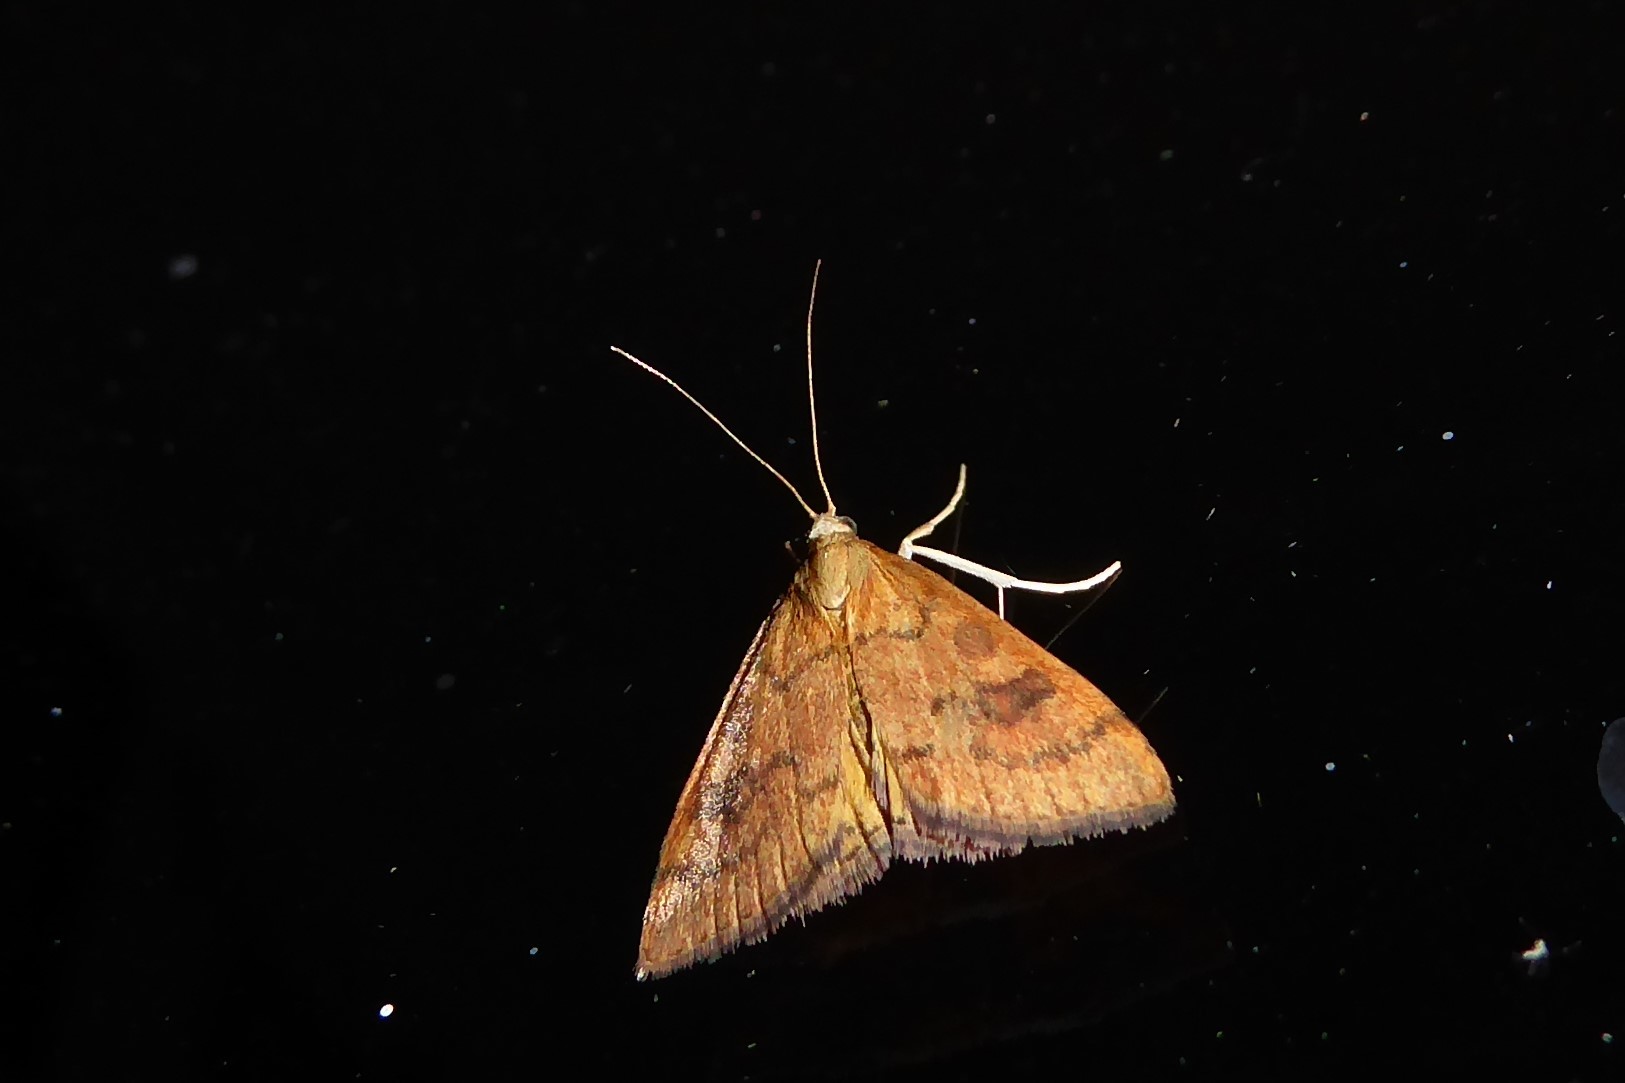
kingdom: Animalia
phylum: Arthropoda
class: Insecta
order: Lepidoptera
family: Crambidae
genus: Udea
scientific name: Udea Mnesictena flavidalis
